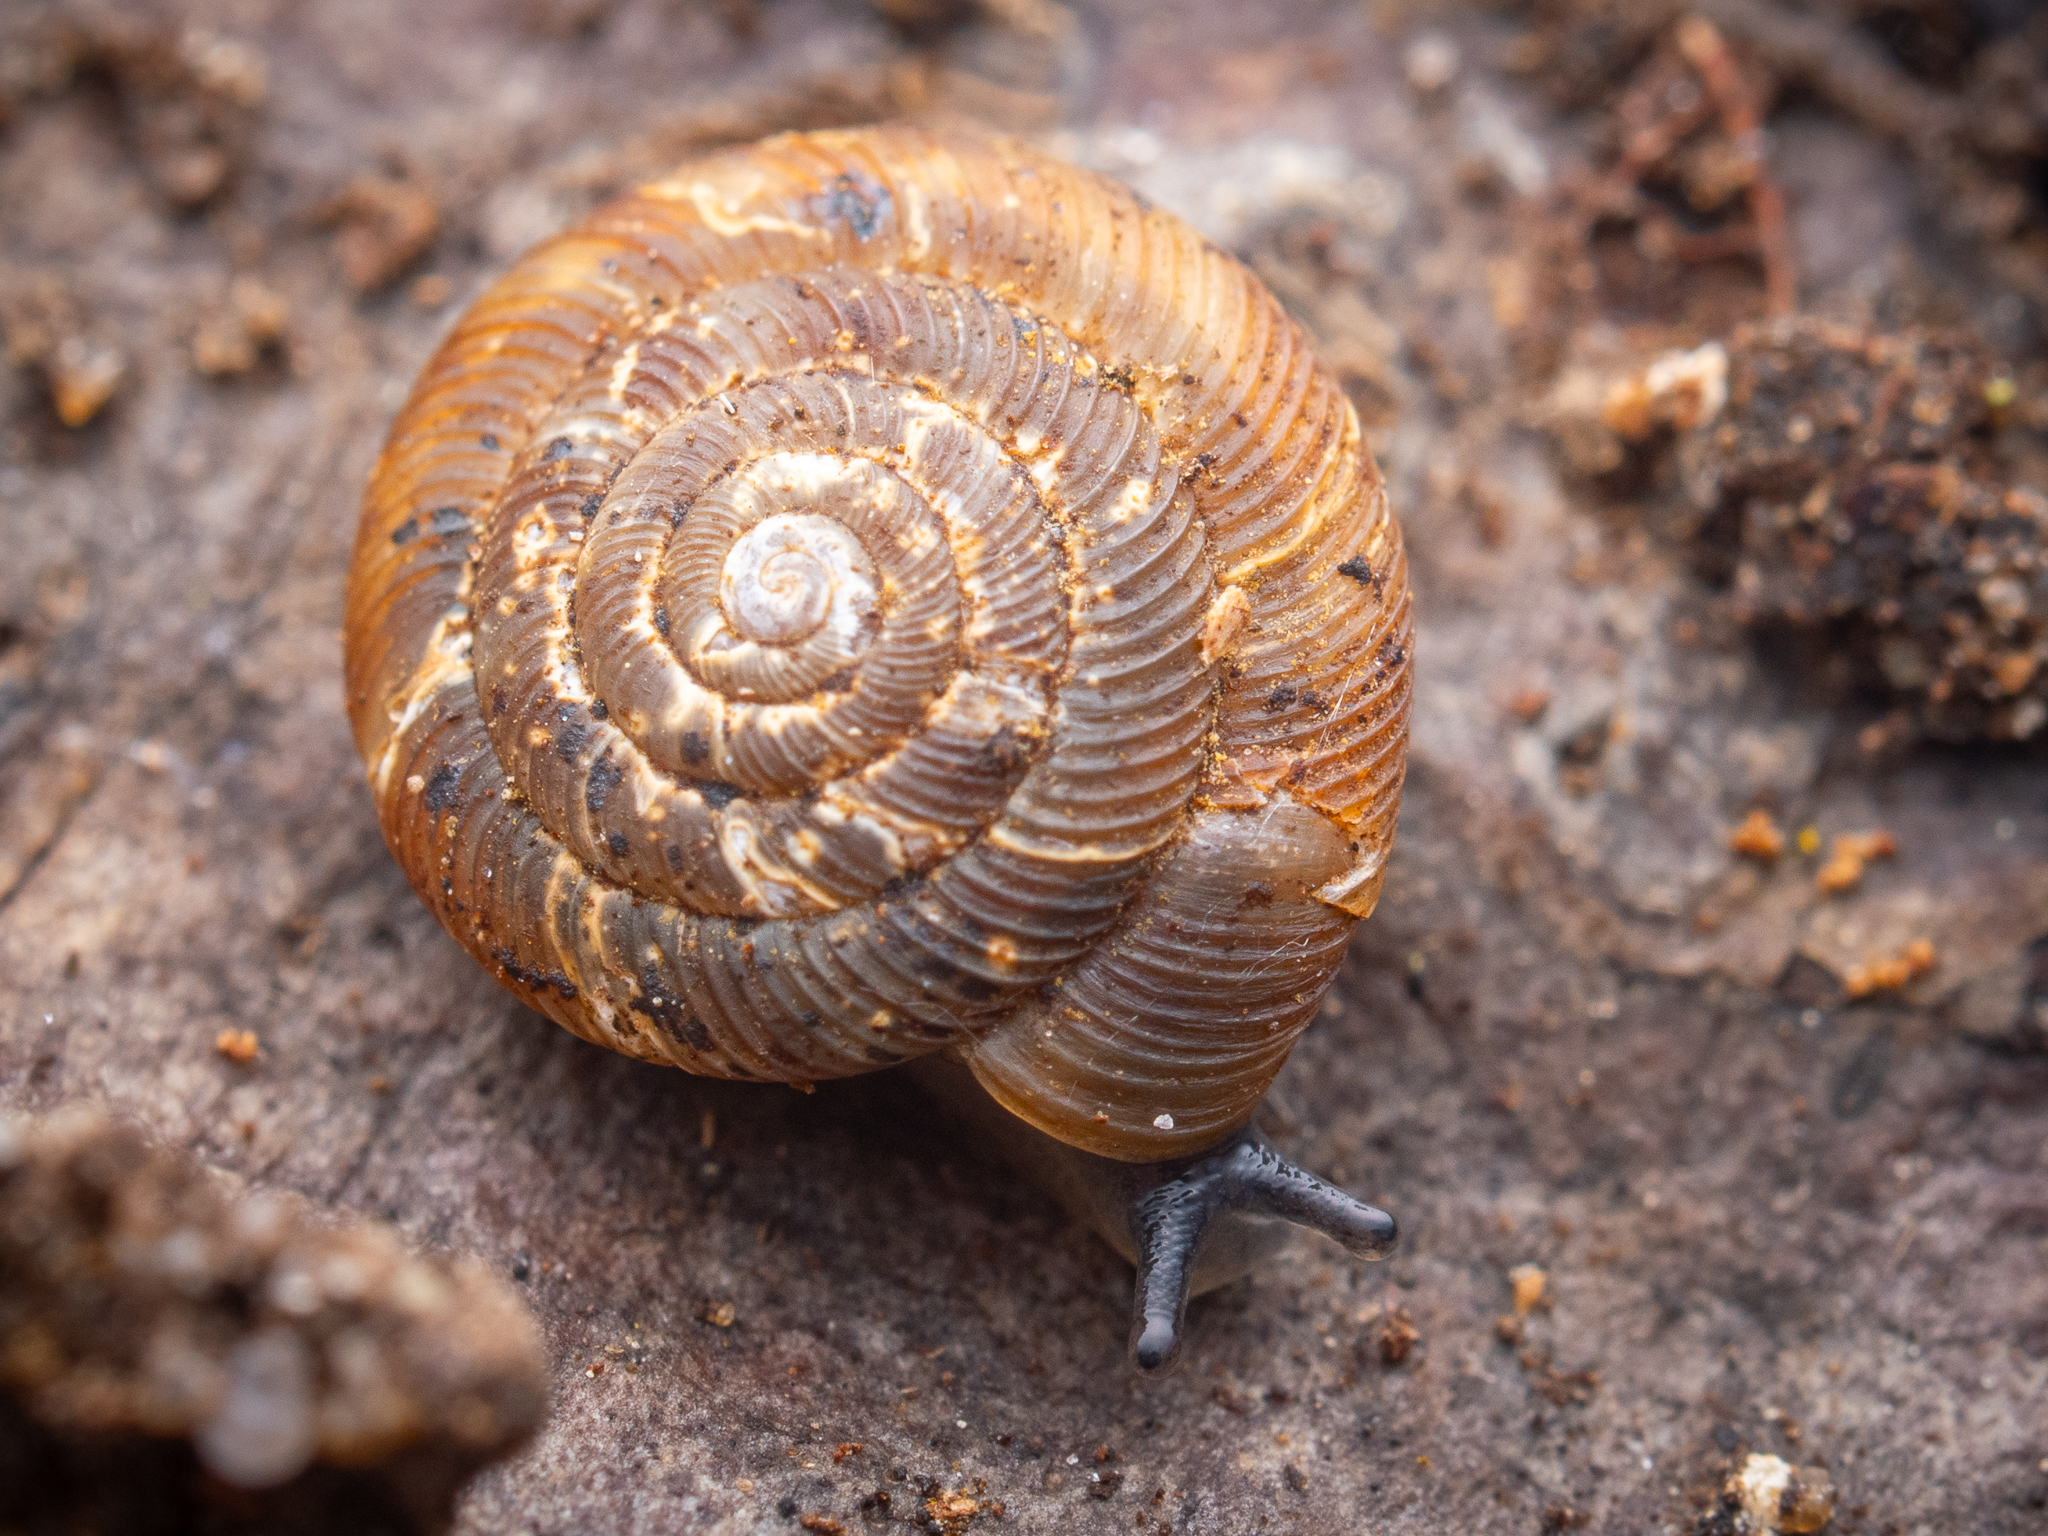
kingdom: Animalia
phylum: Mollusca
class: Gastropoda
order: Stylommatophora
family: Discidae
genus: Discus
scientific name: Discus rotundatus
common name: Rounded snail
